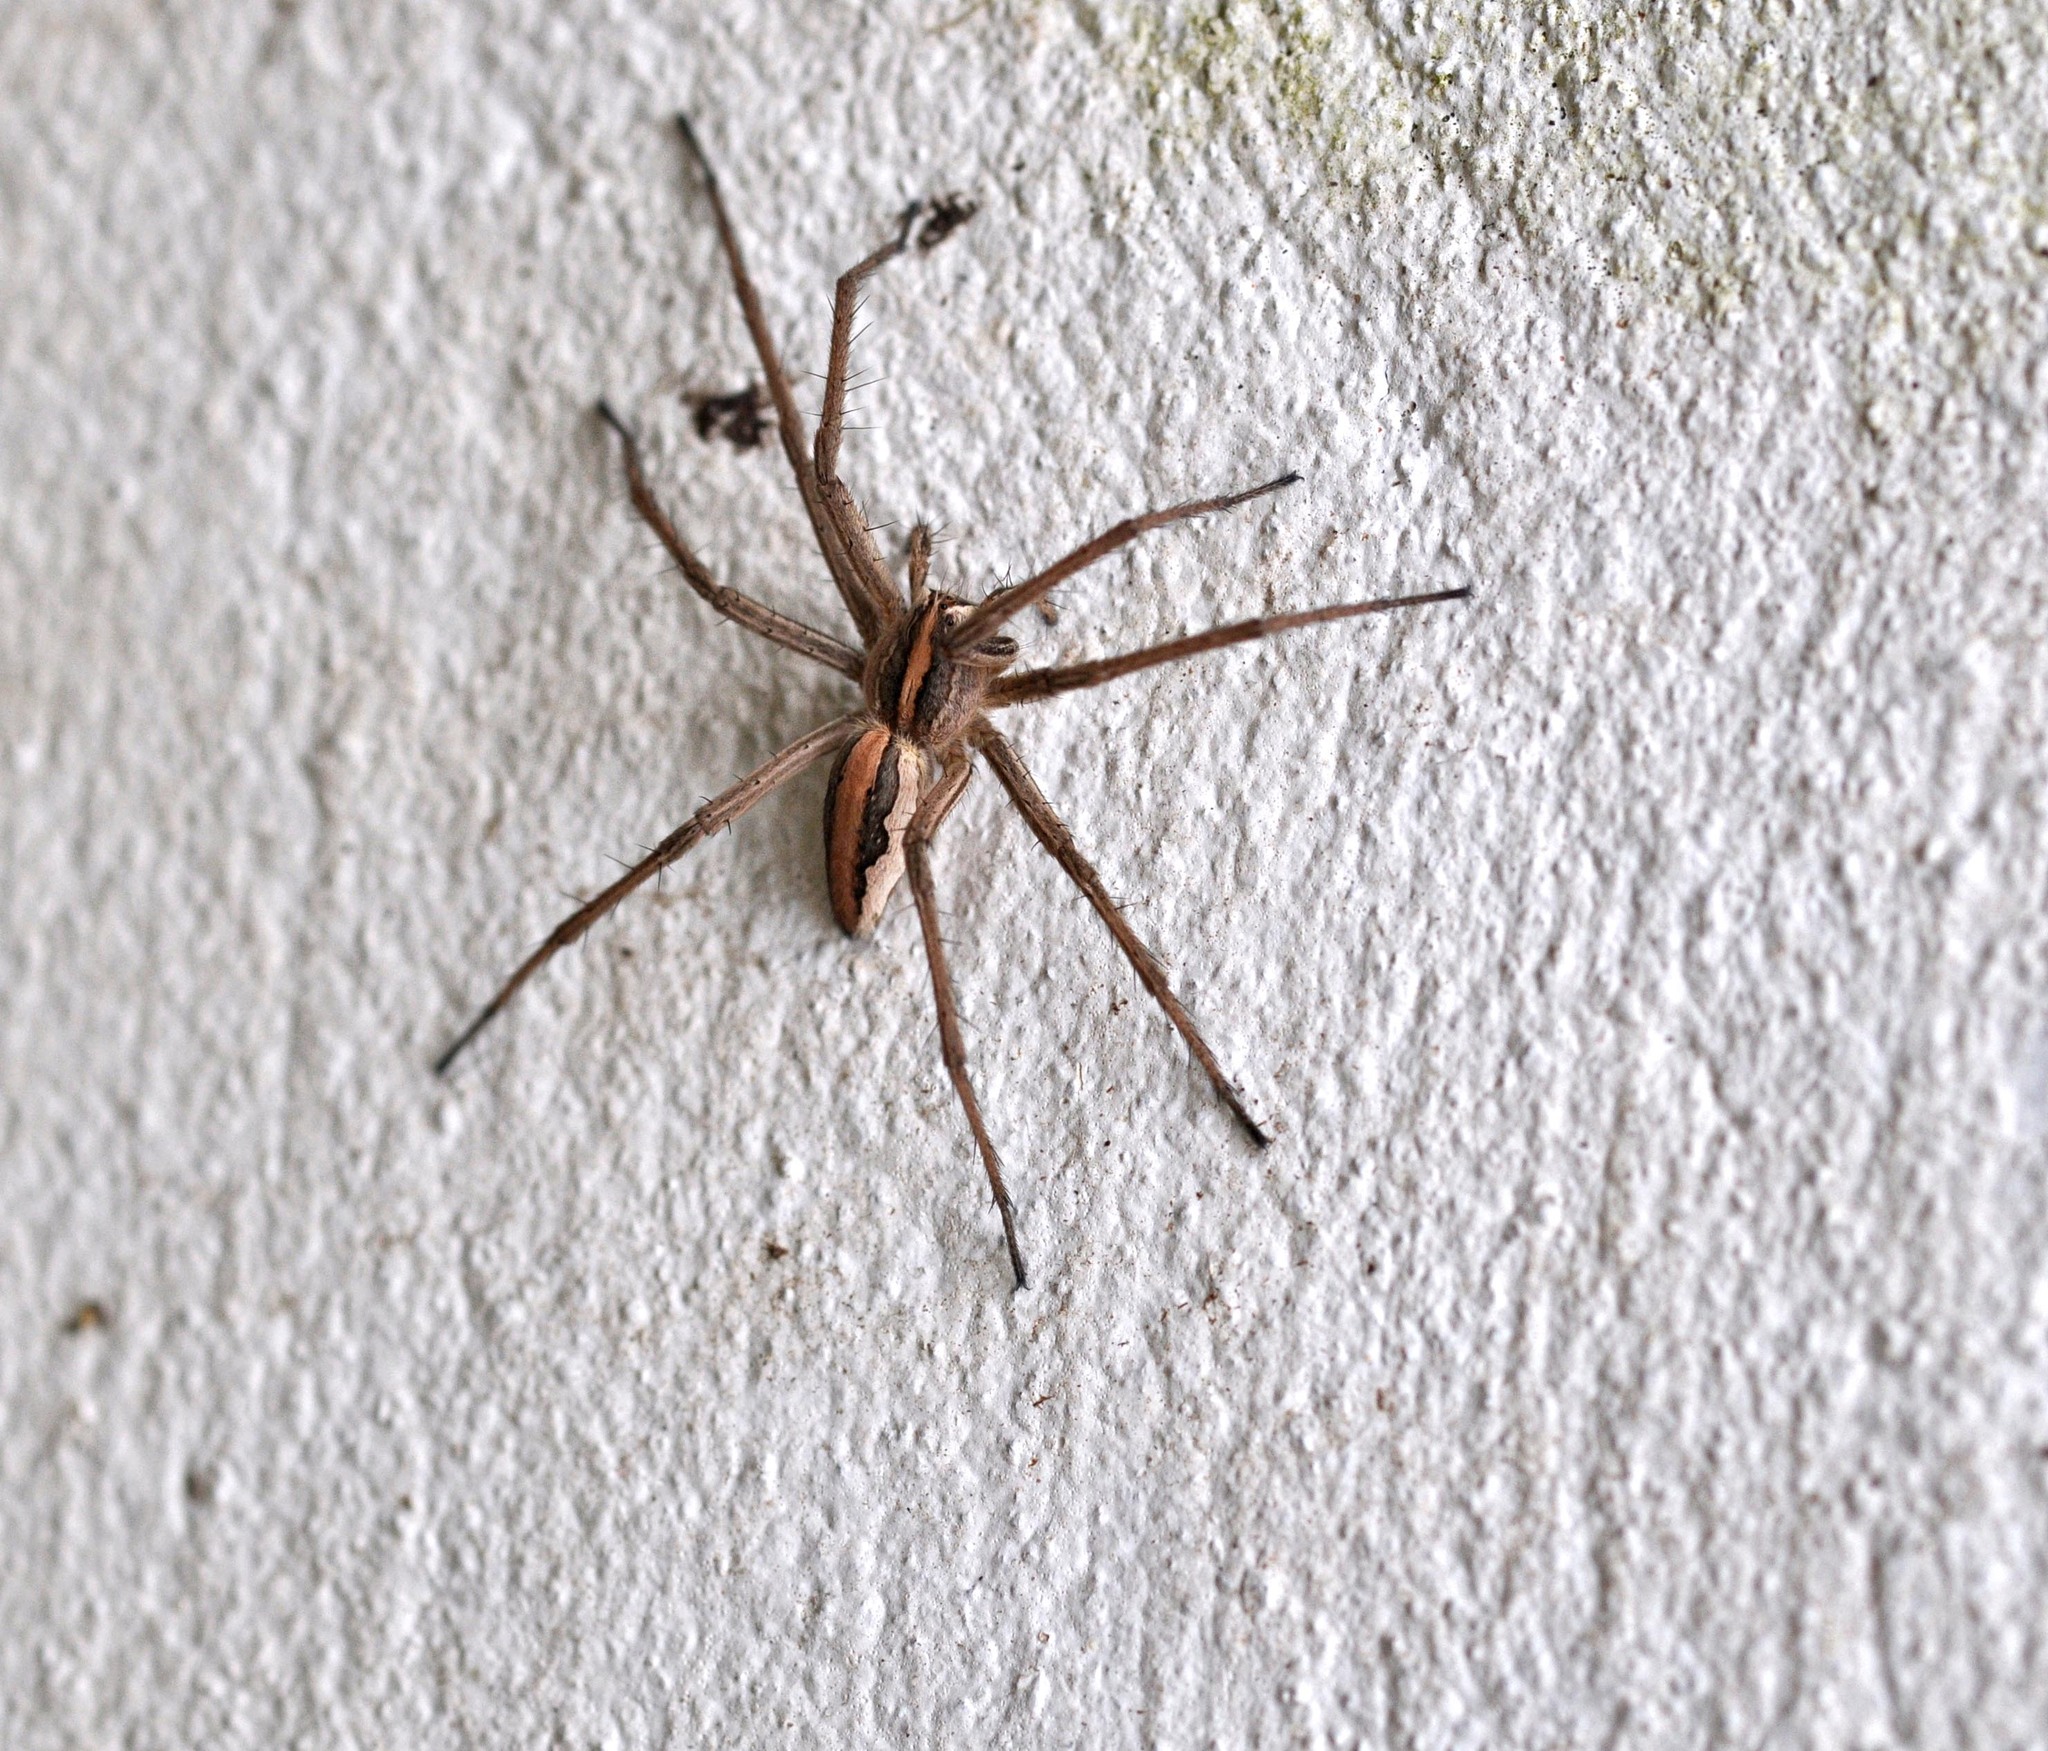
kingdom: Animalia
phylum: Arthropoda
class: Arachnida
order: Araneae
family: Pisauridae
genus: Pisaura
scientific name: Pisaura mirabilis
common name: Tent spider
